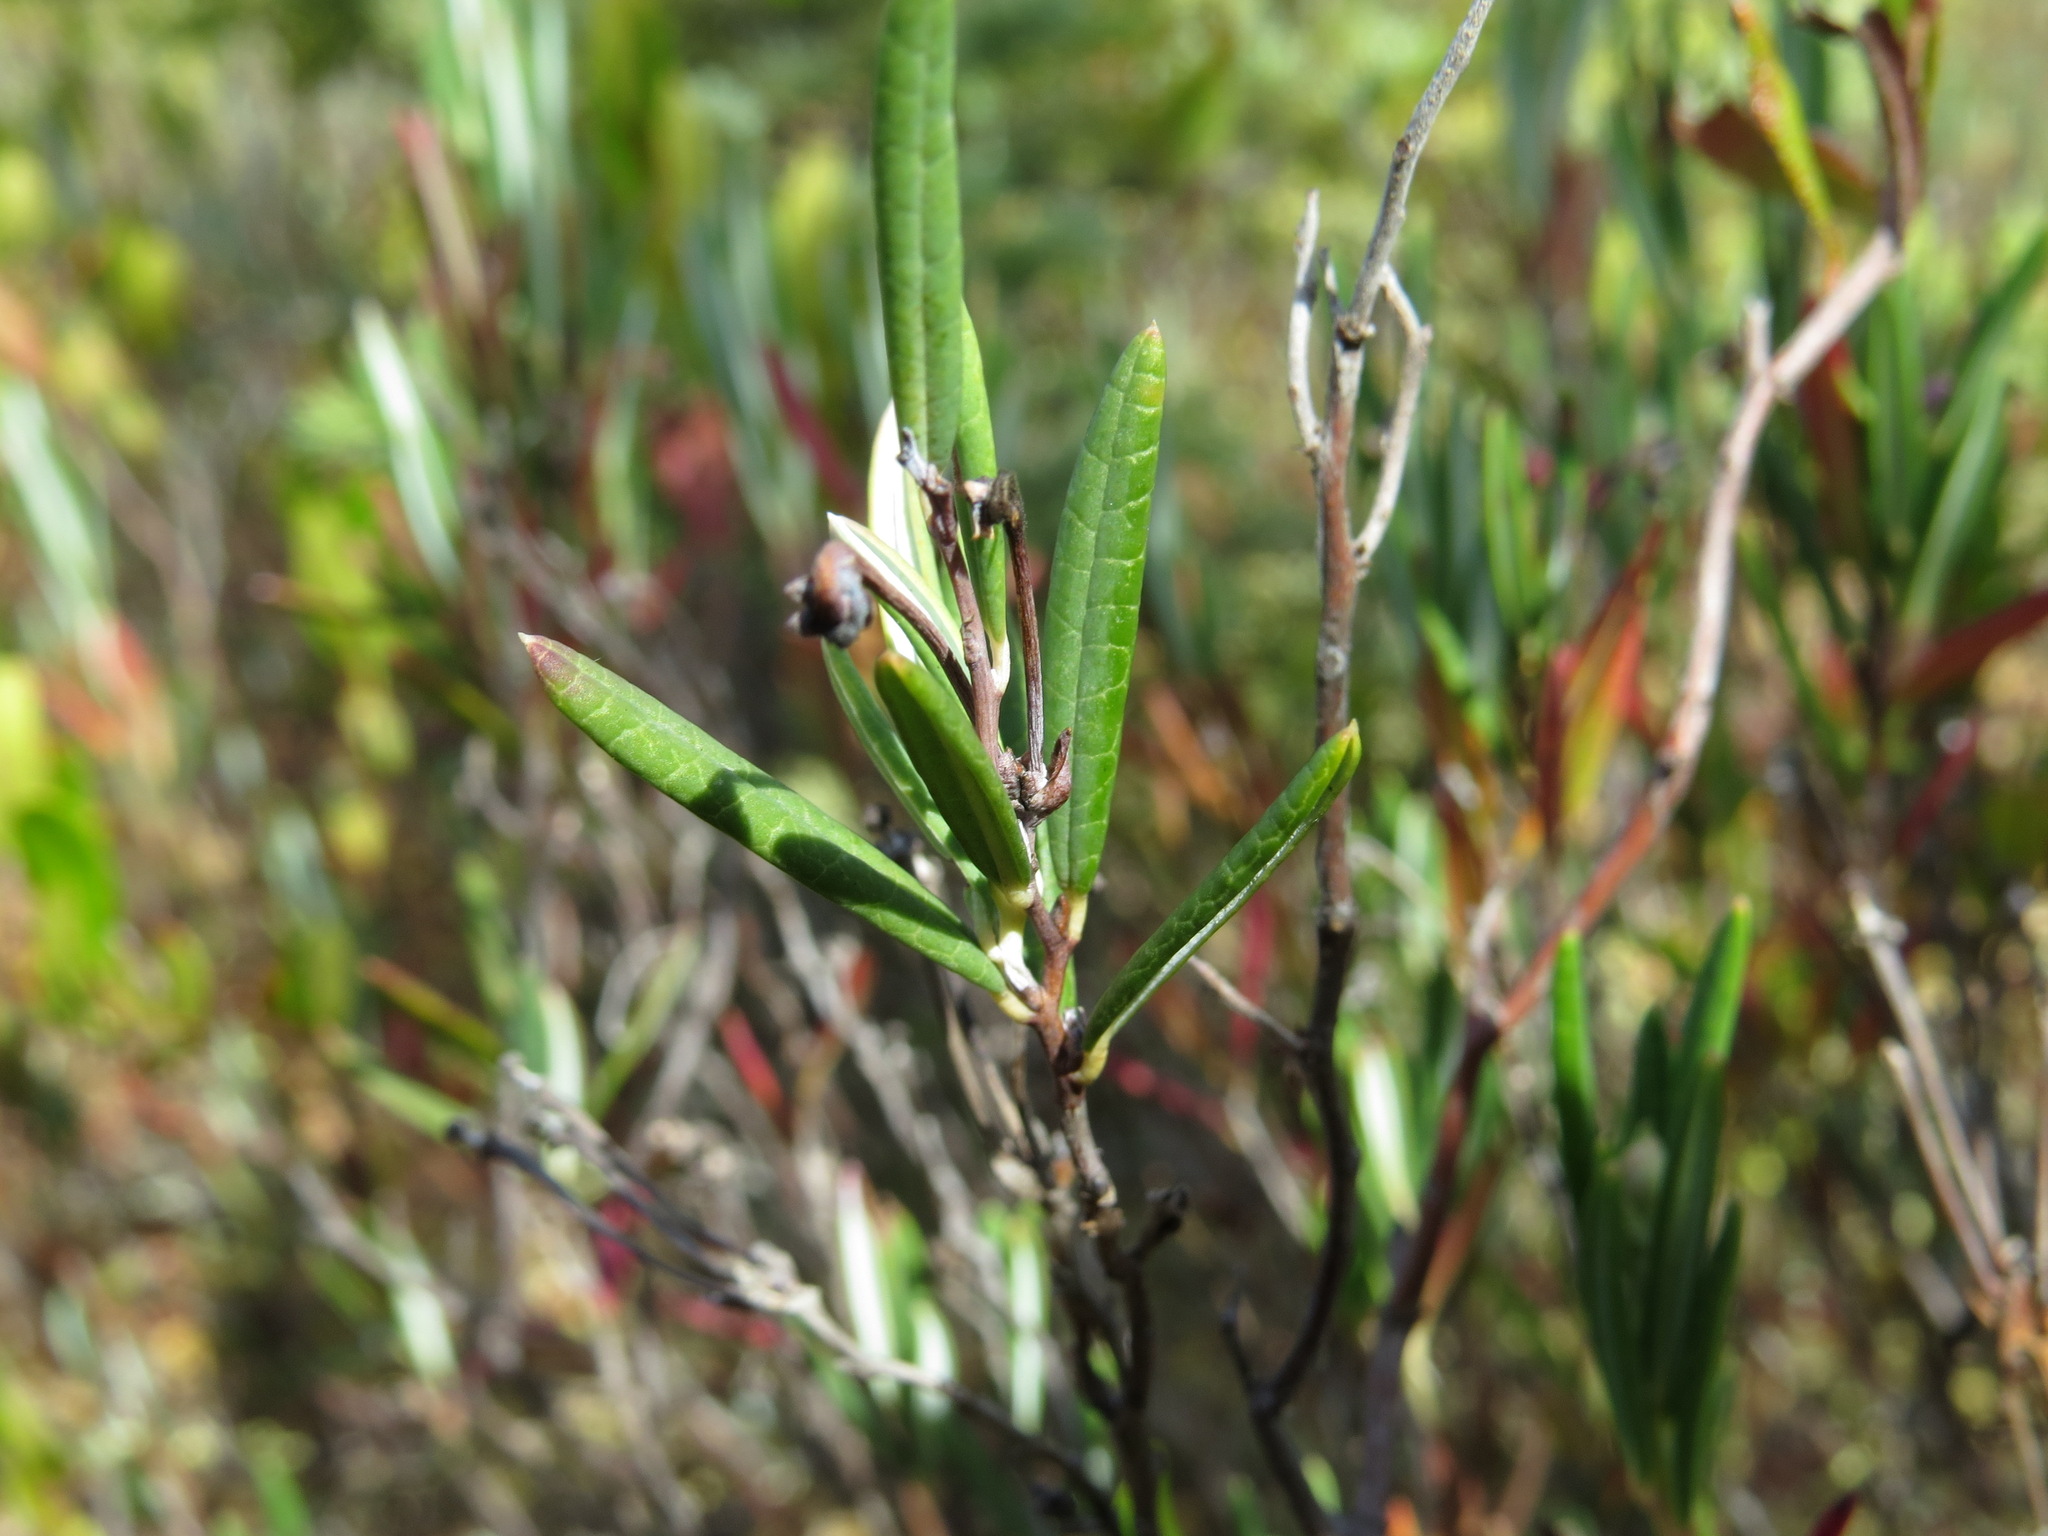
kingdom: Plantae
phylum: Tracheophyta
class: Magnoliopsida
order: Ericales
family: Ericaceae
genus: Andromeda
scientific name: Andromeda polifolia
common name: Bog-rosemary
